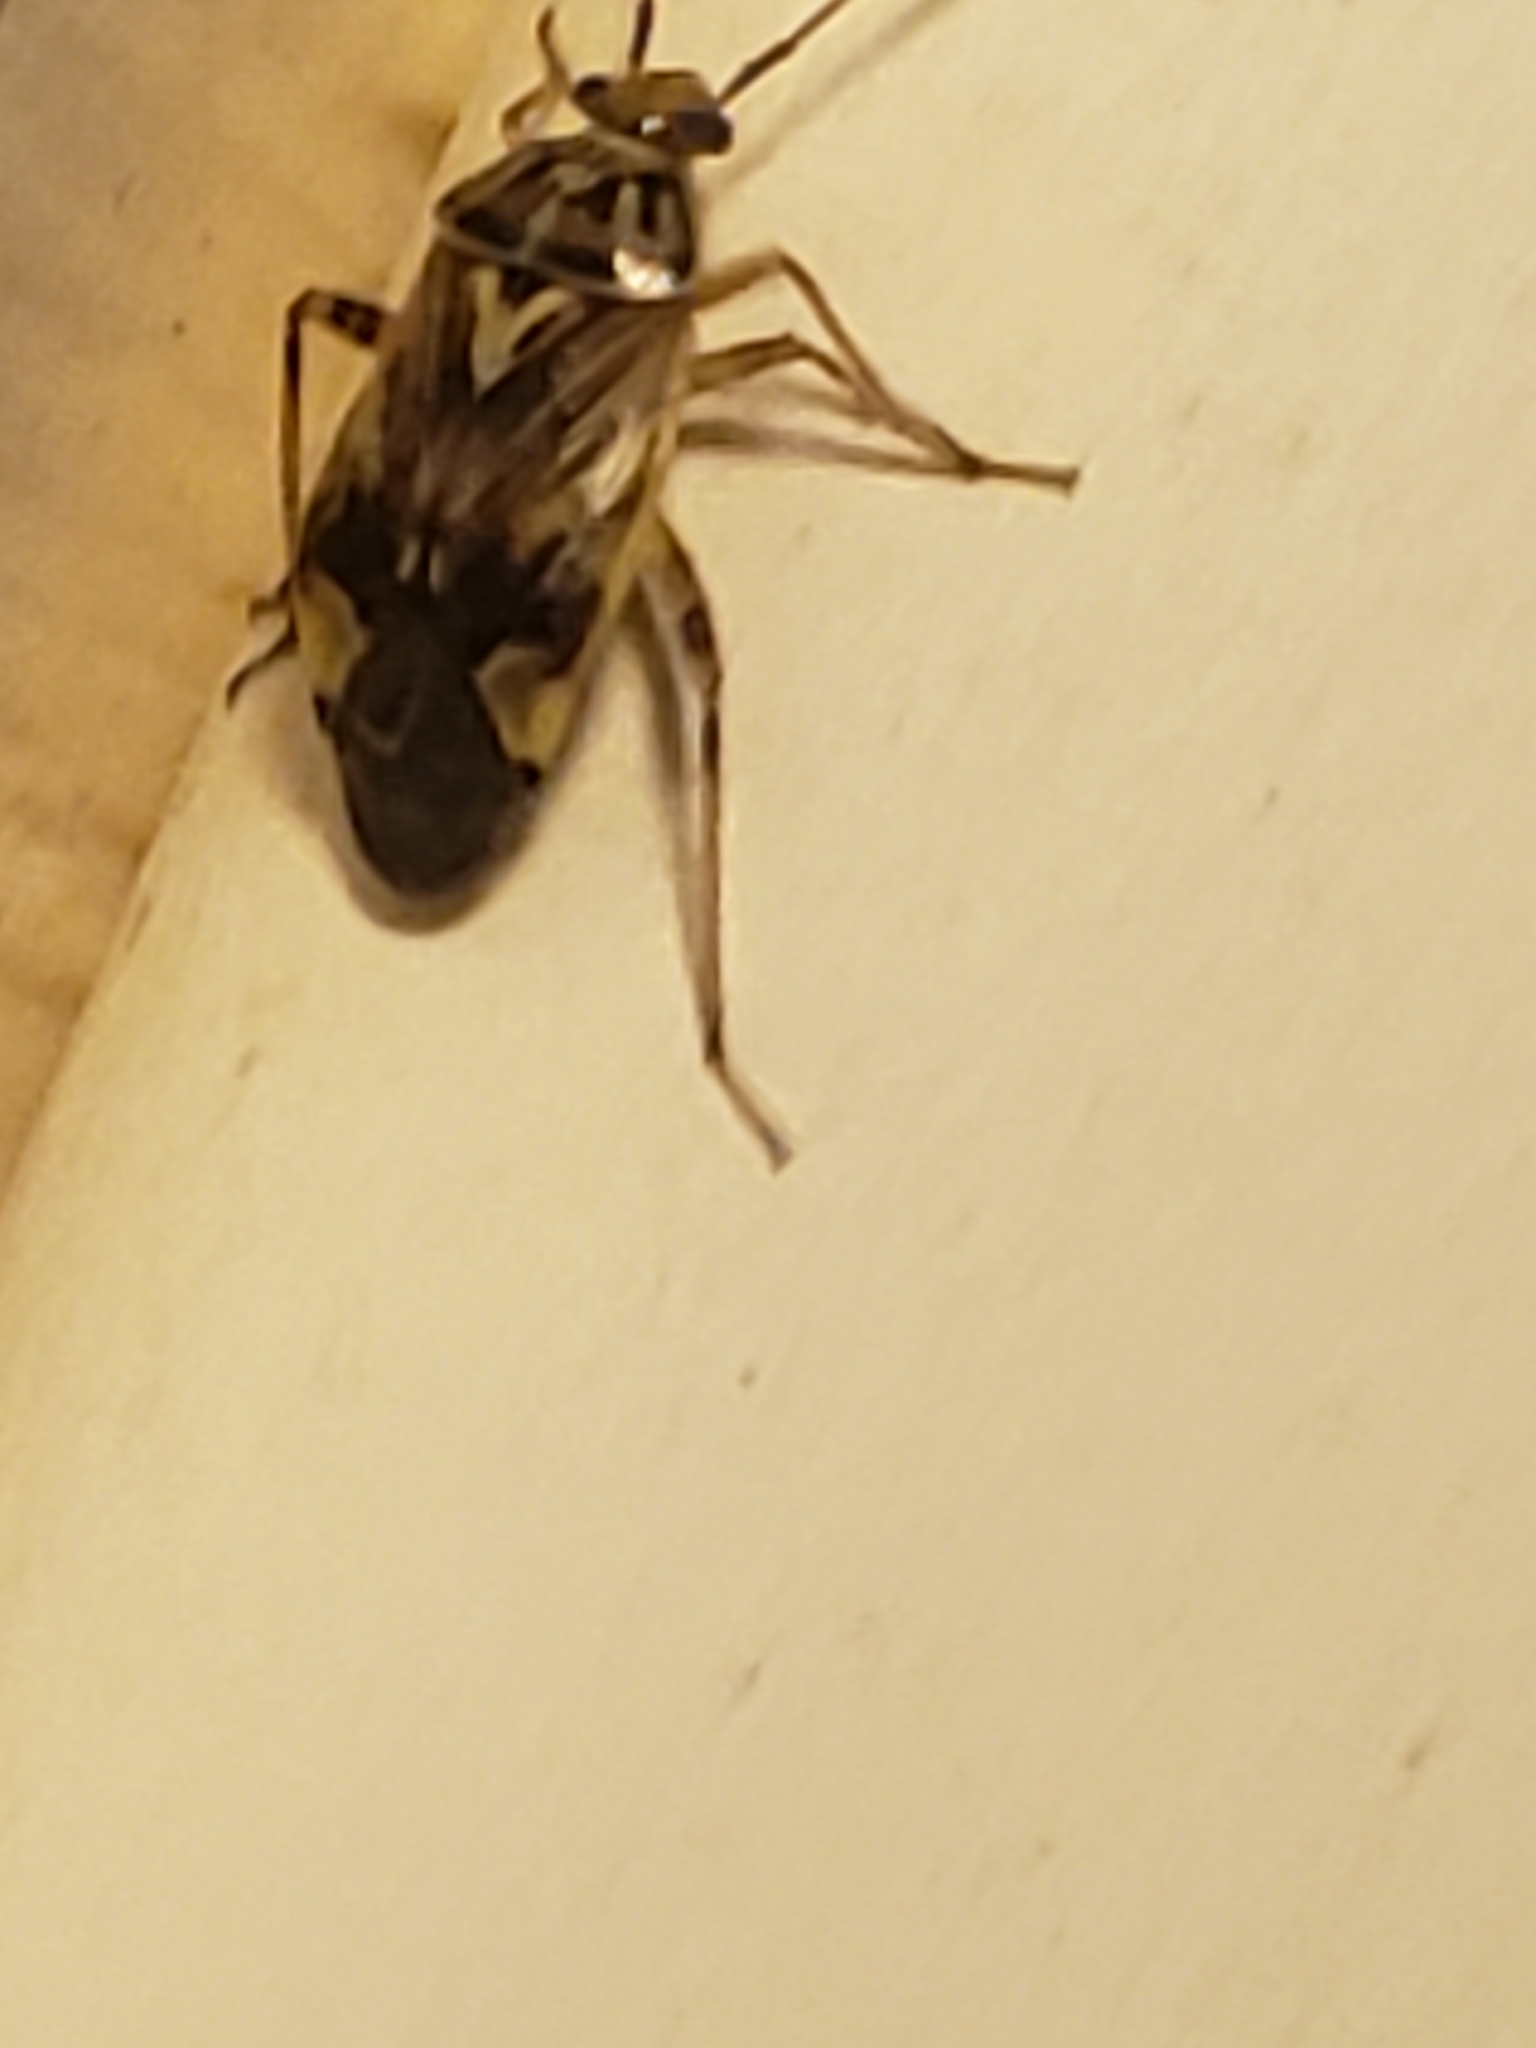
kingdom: Animalia
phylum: Arthropoda
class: Insecta
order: Hemiptera
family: Miridae
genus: Lygus
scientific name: Lygus lineolaris
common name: North american tarnished plant bug
